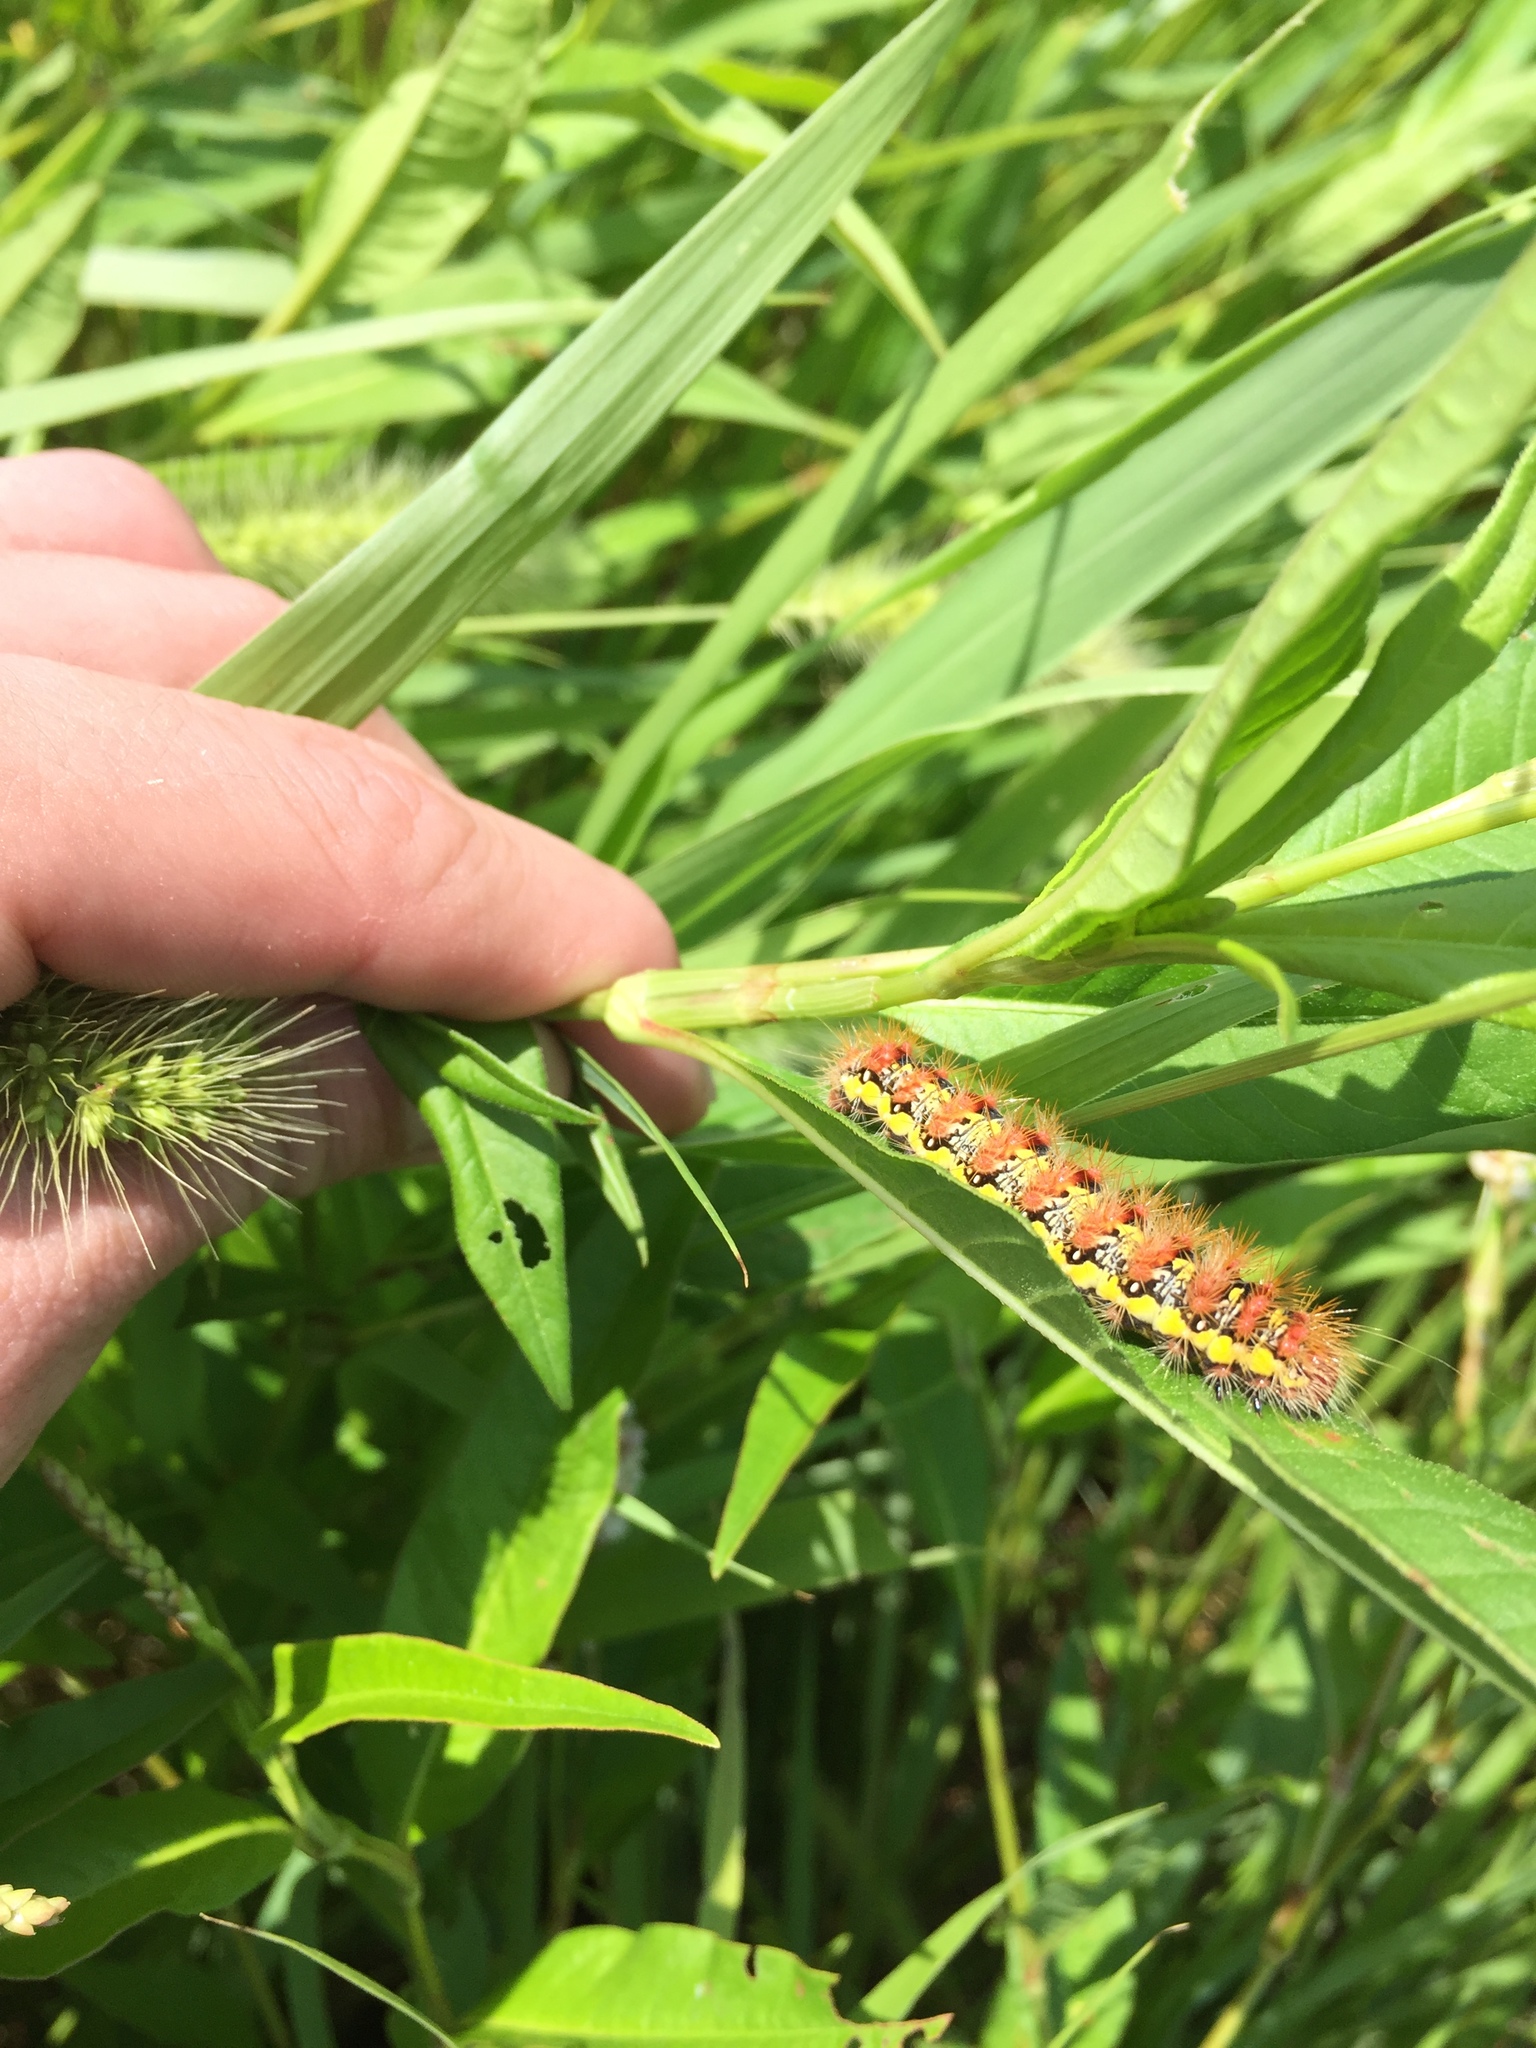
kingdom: Animalia
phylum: Arthropoda
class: Insecta
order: Lepidoptera
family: Noctuidae
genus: Acronicta
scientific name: Acronicta oblinita
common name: Smeared dagger
